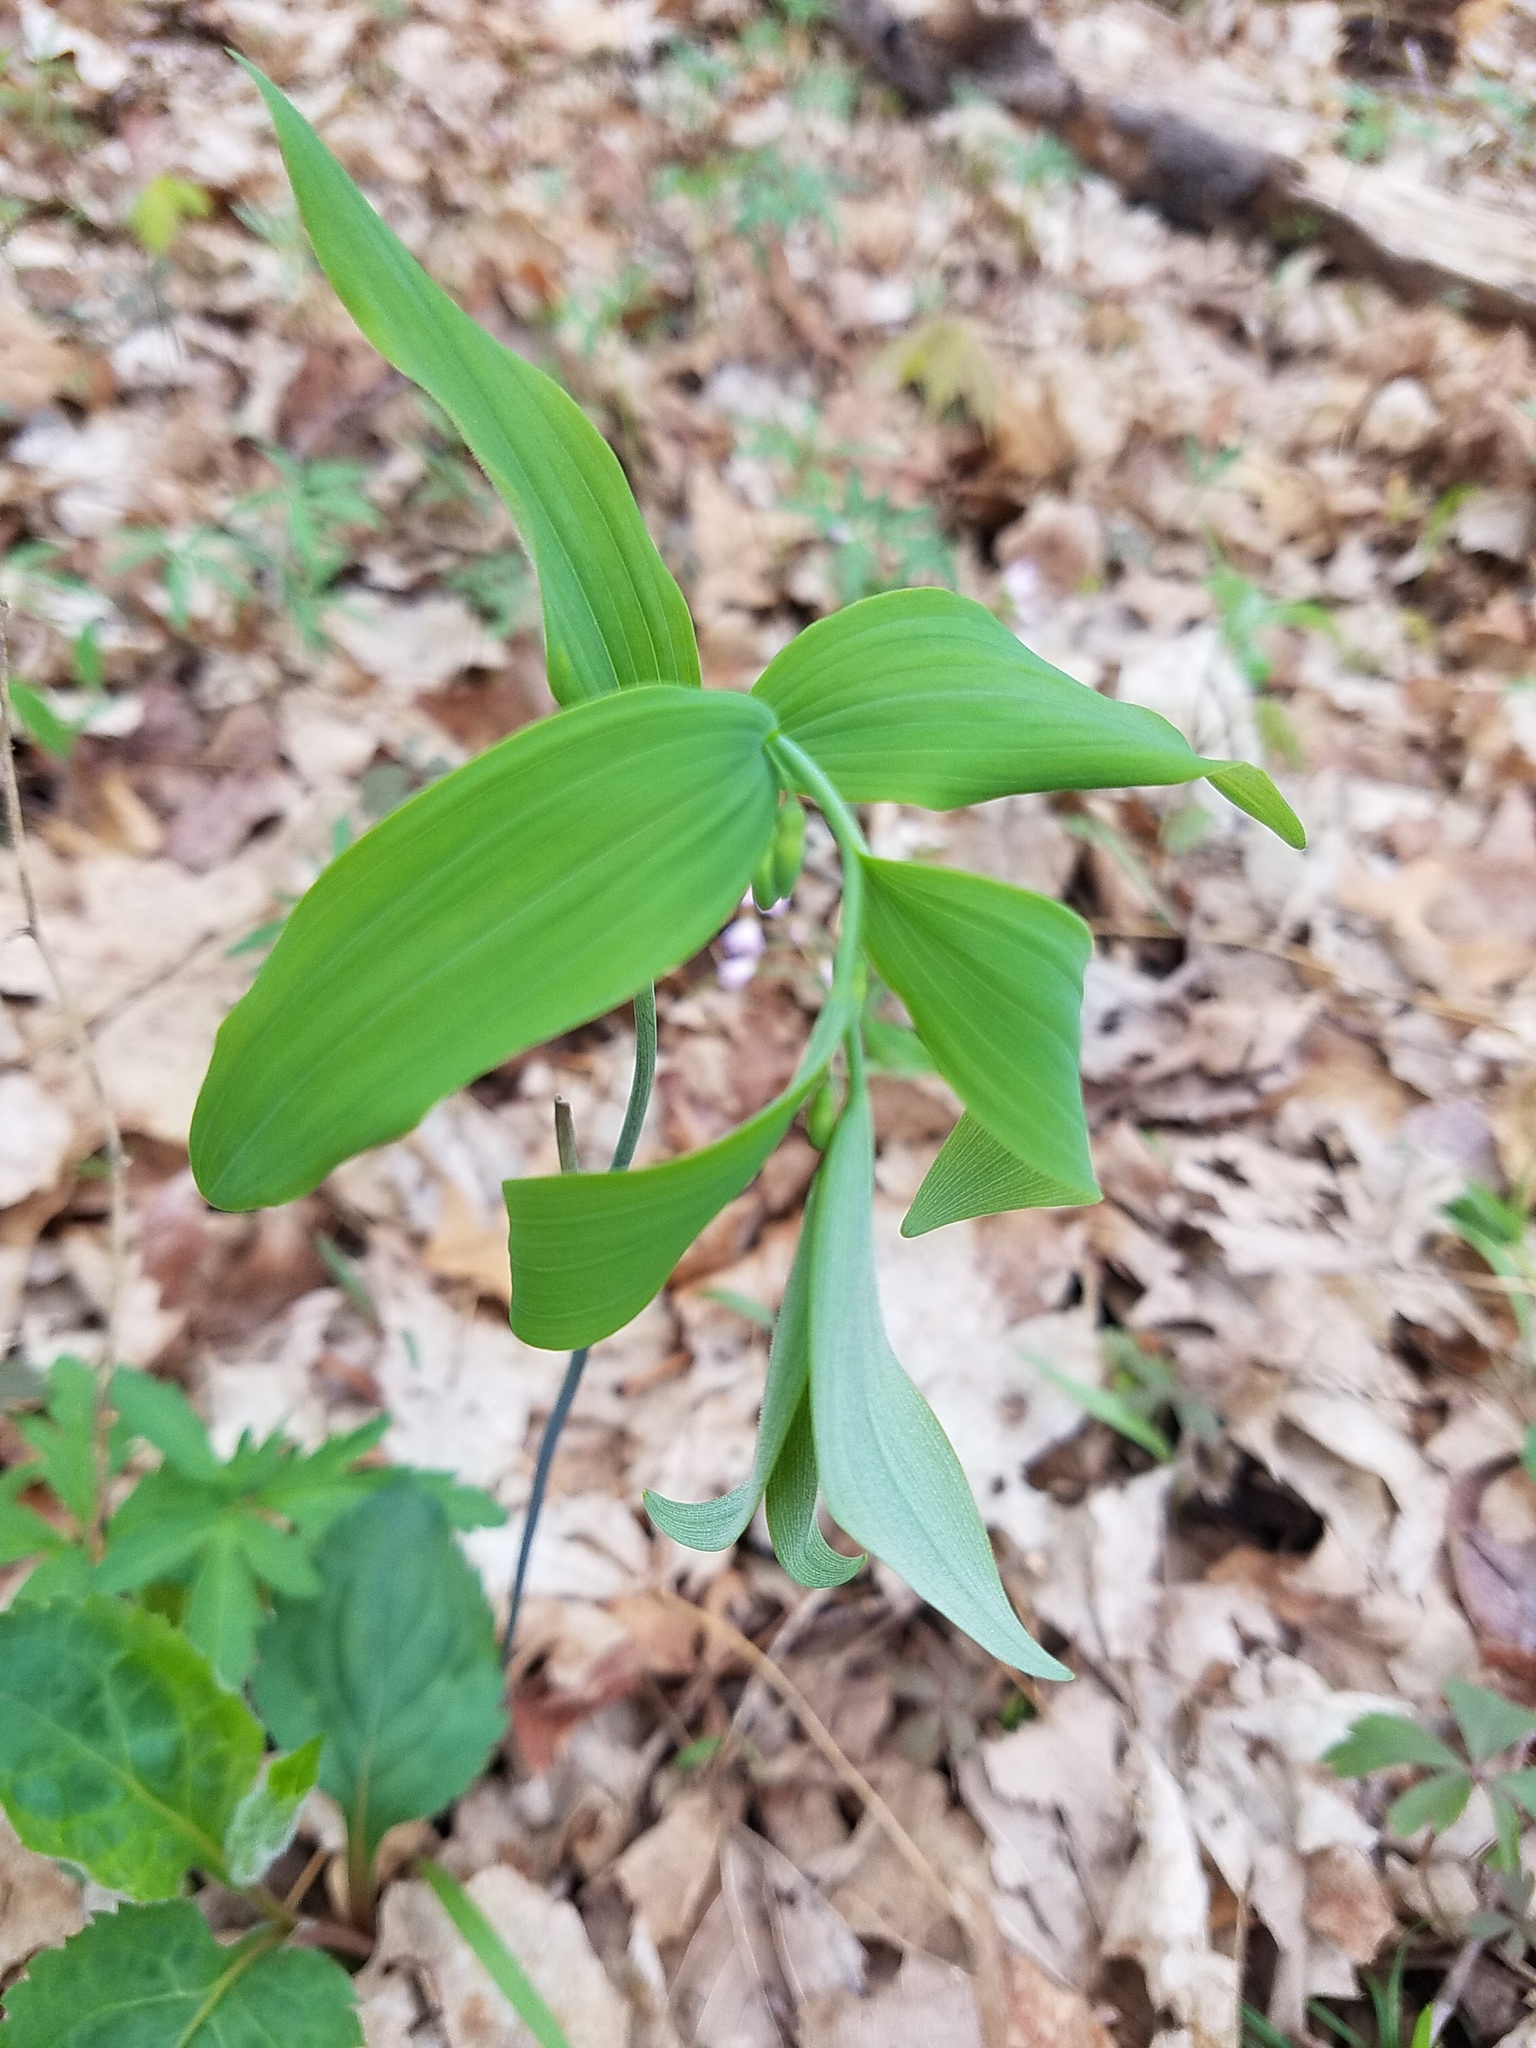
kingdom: Plantae
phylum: Tracheophyta
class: Liliopsida
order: Asparagales
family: Asparagaceae
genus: Polygonatum
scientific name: Polygonatum pubescens
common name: Downy solomon's seal
